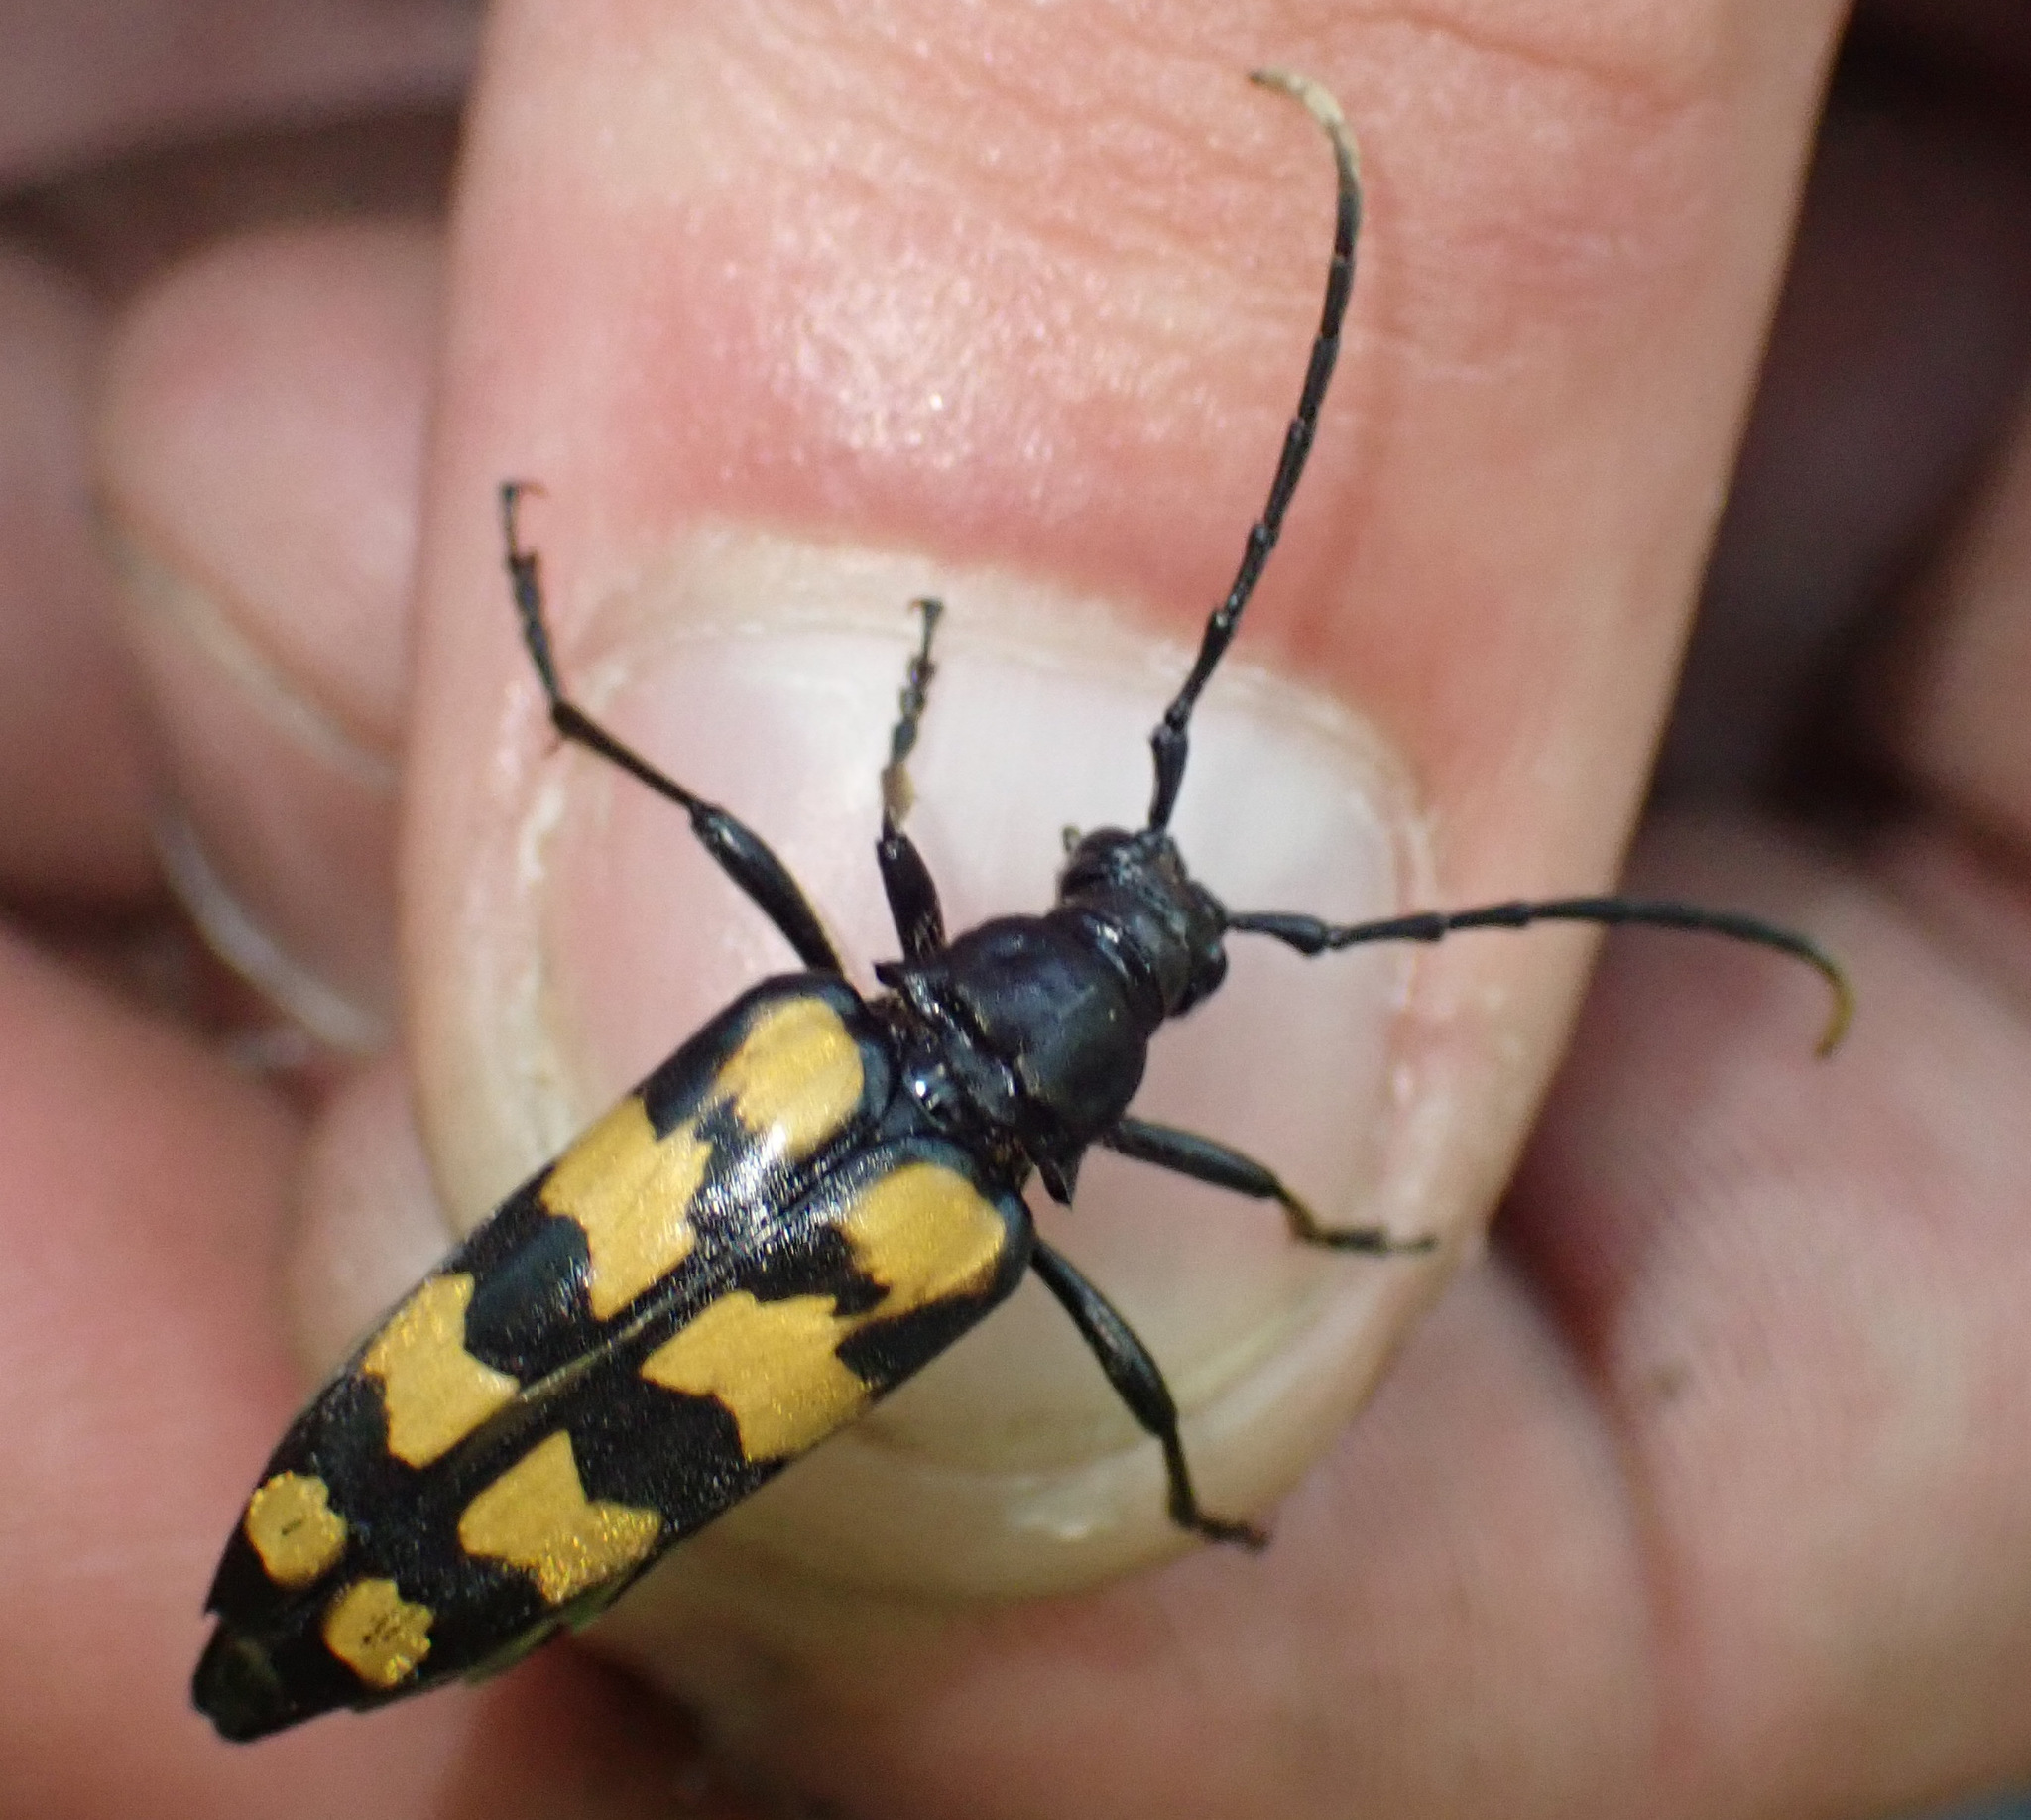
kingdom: Animalia
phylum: Arthropoda
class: Insecta
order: Coleoptera
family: Cerambycidae
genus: Leptura
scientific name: Leptura quadrifasciata
